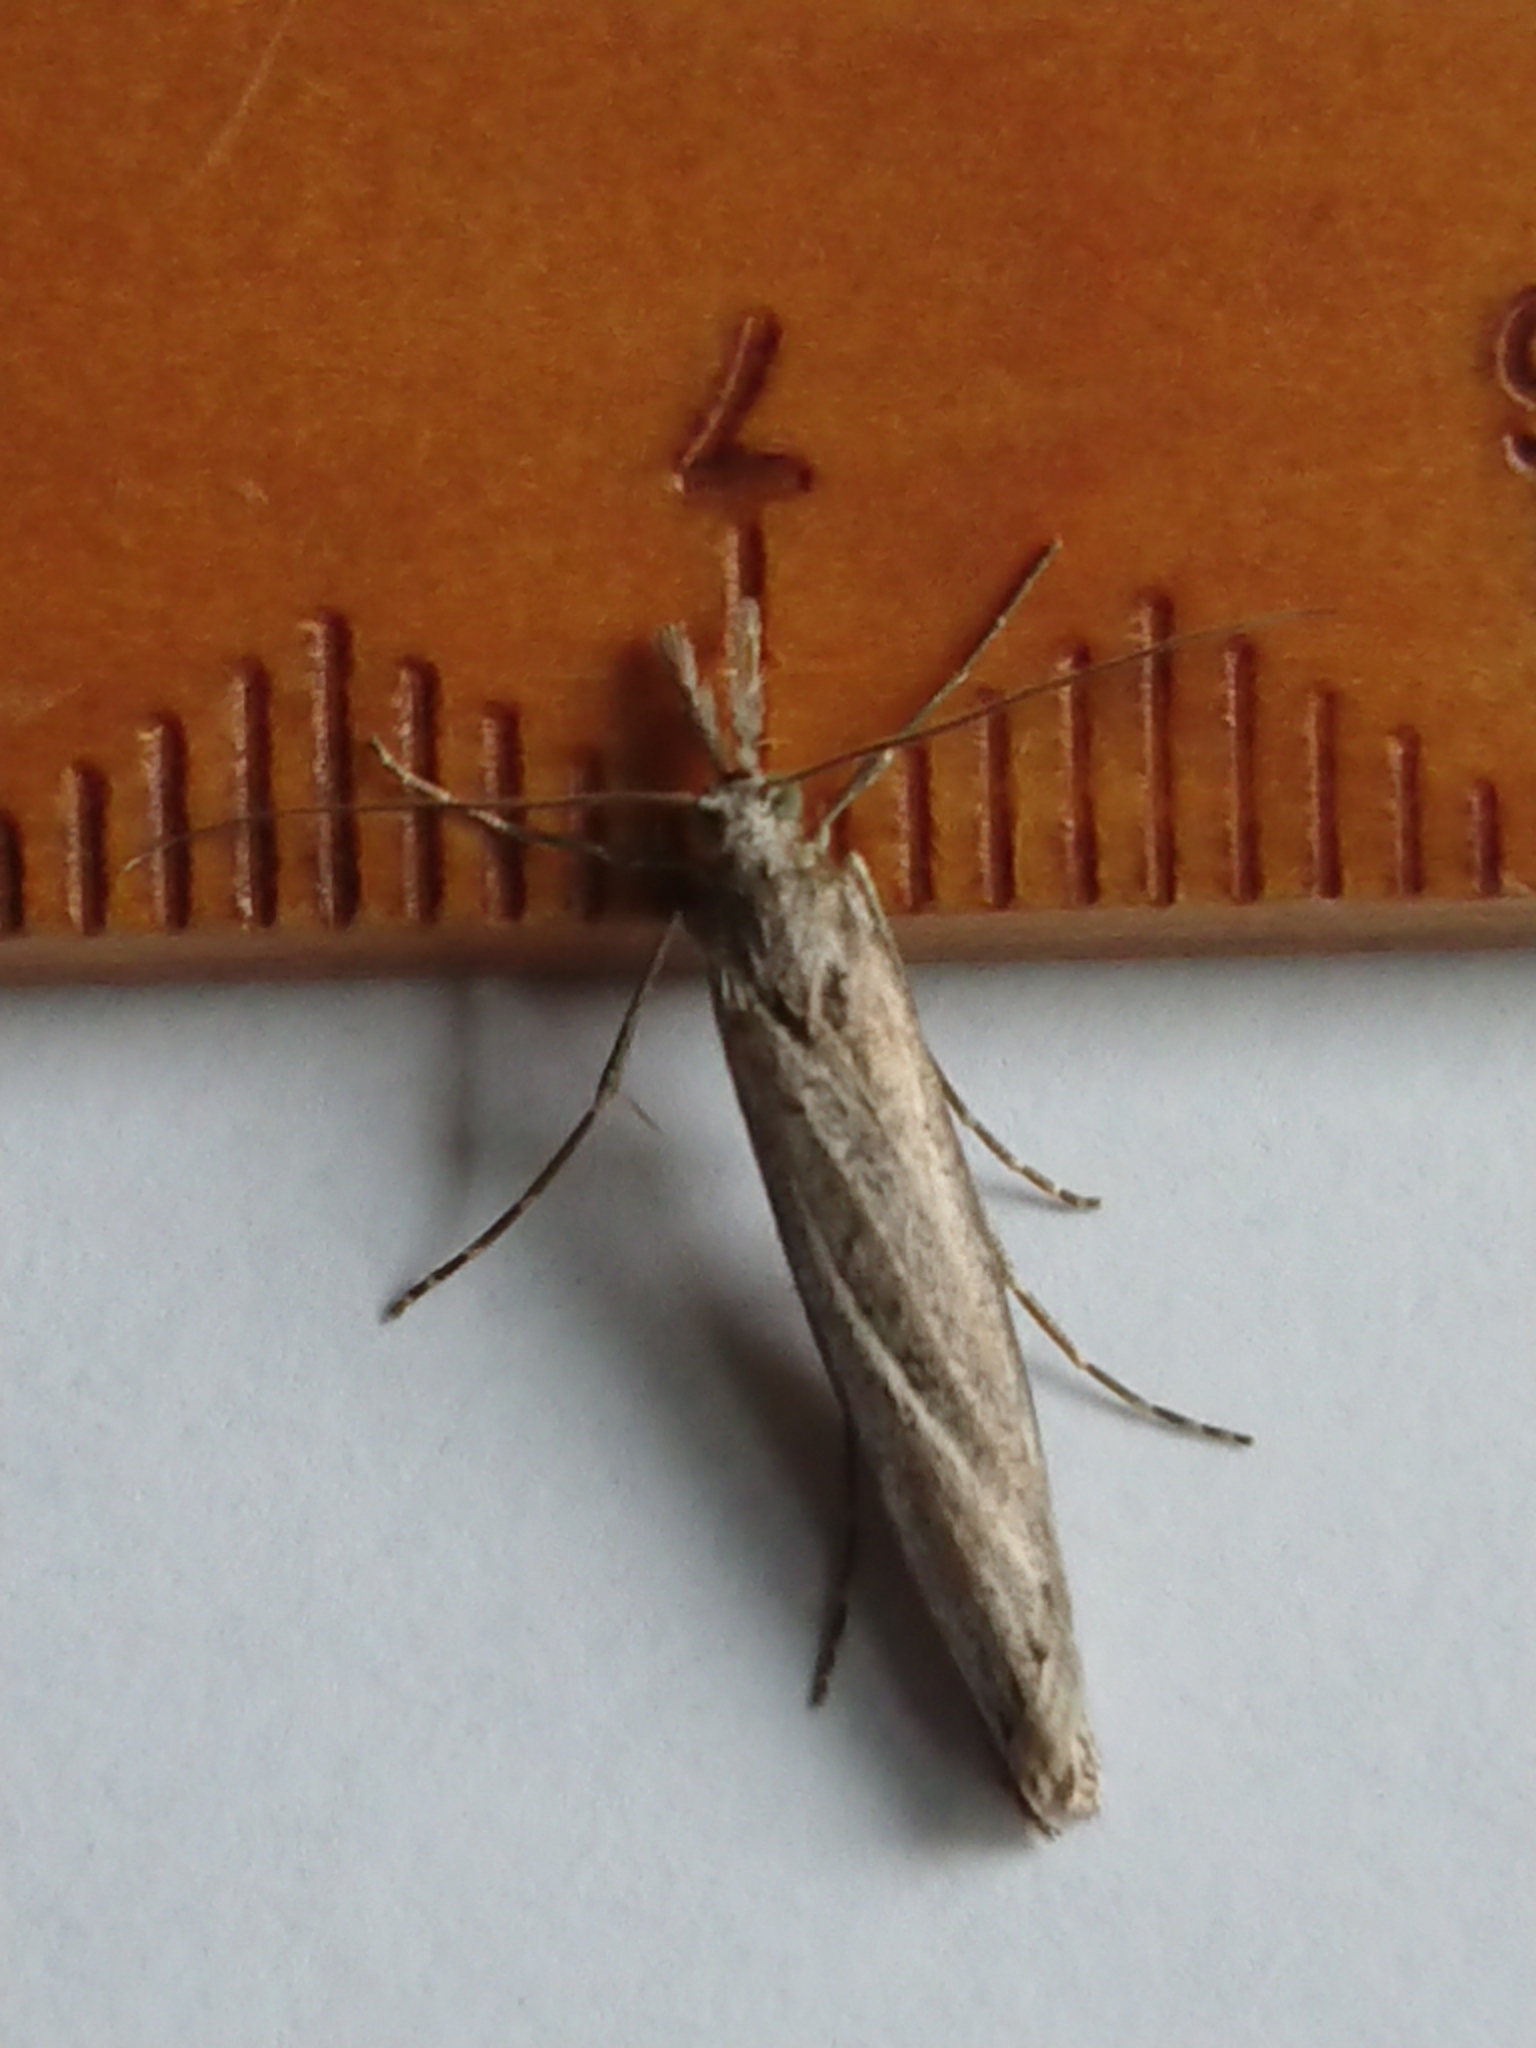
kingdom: Animalia
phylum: Arthropoda
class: Insecta
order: Lepidoptera
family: Crambidae
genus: Orocrambus
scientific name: Orocrambus cyclopicus
